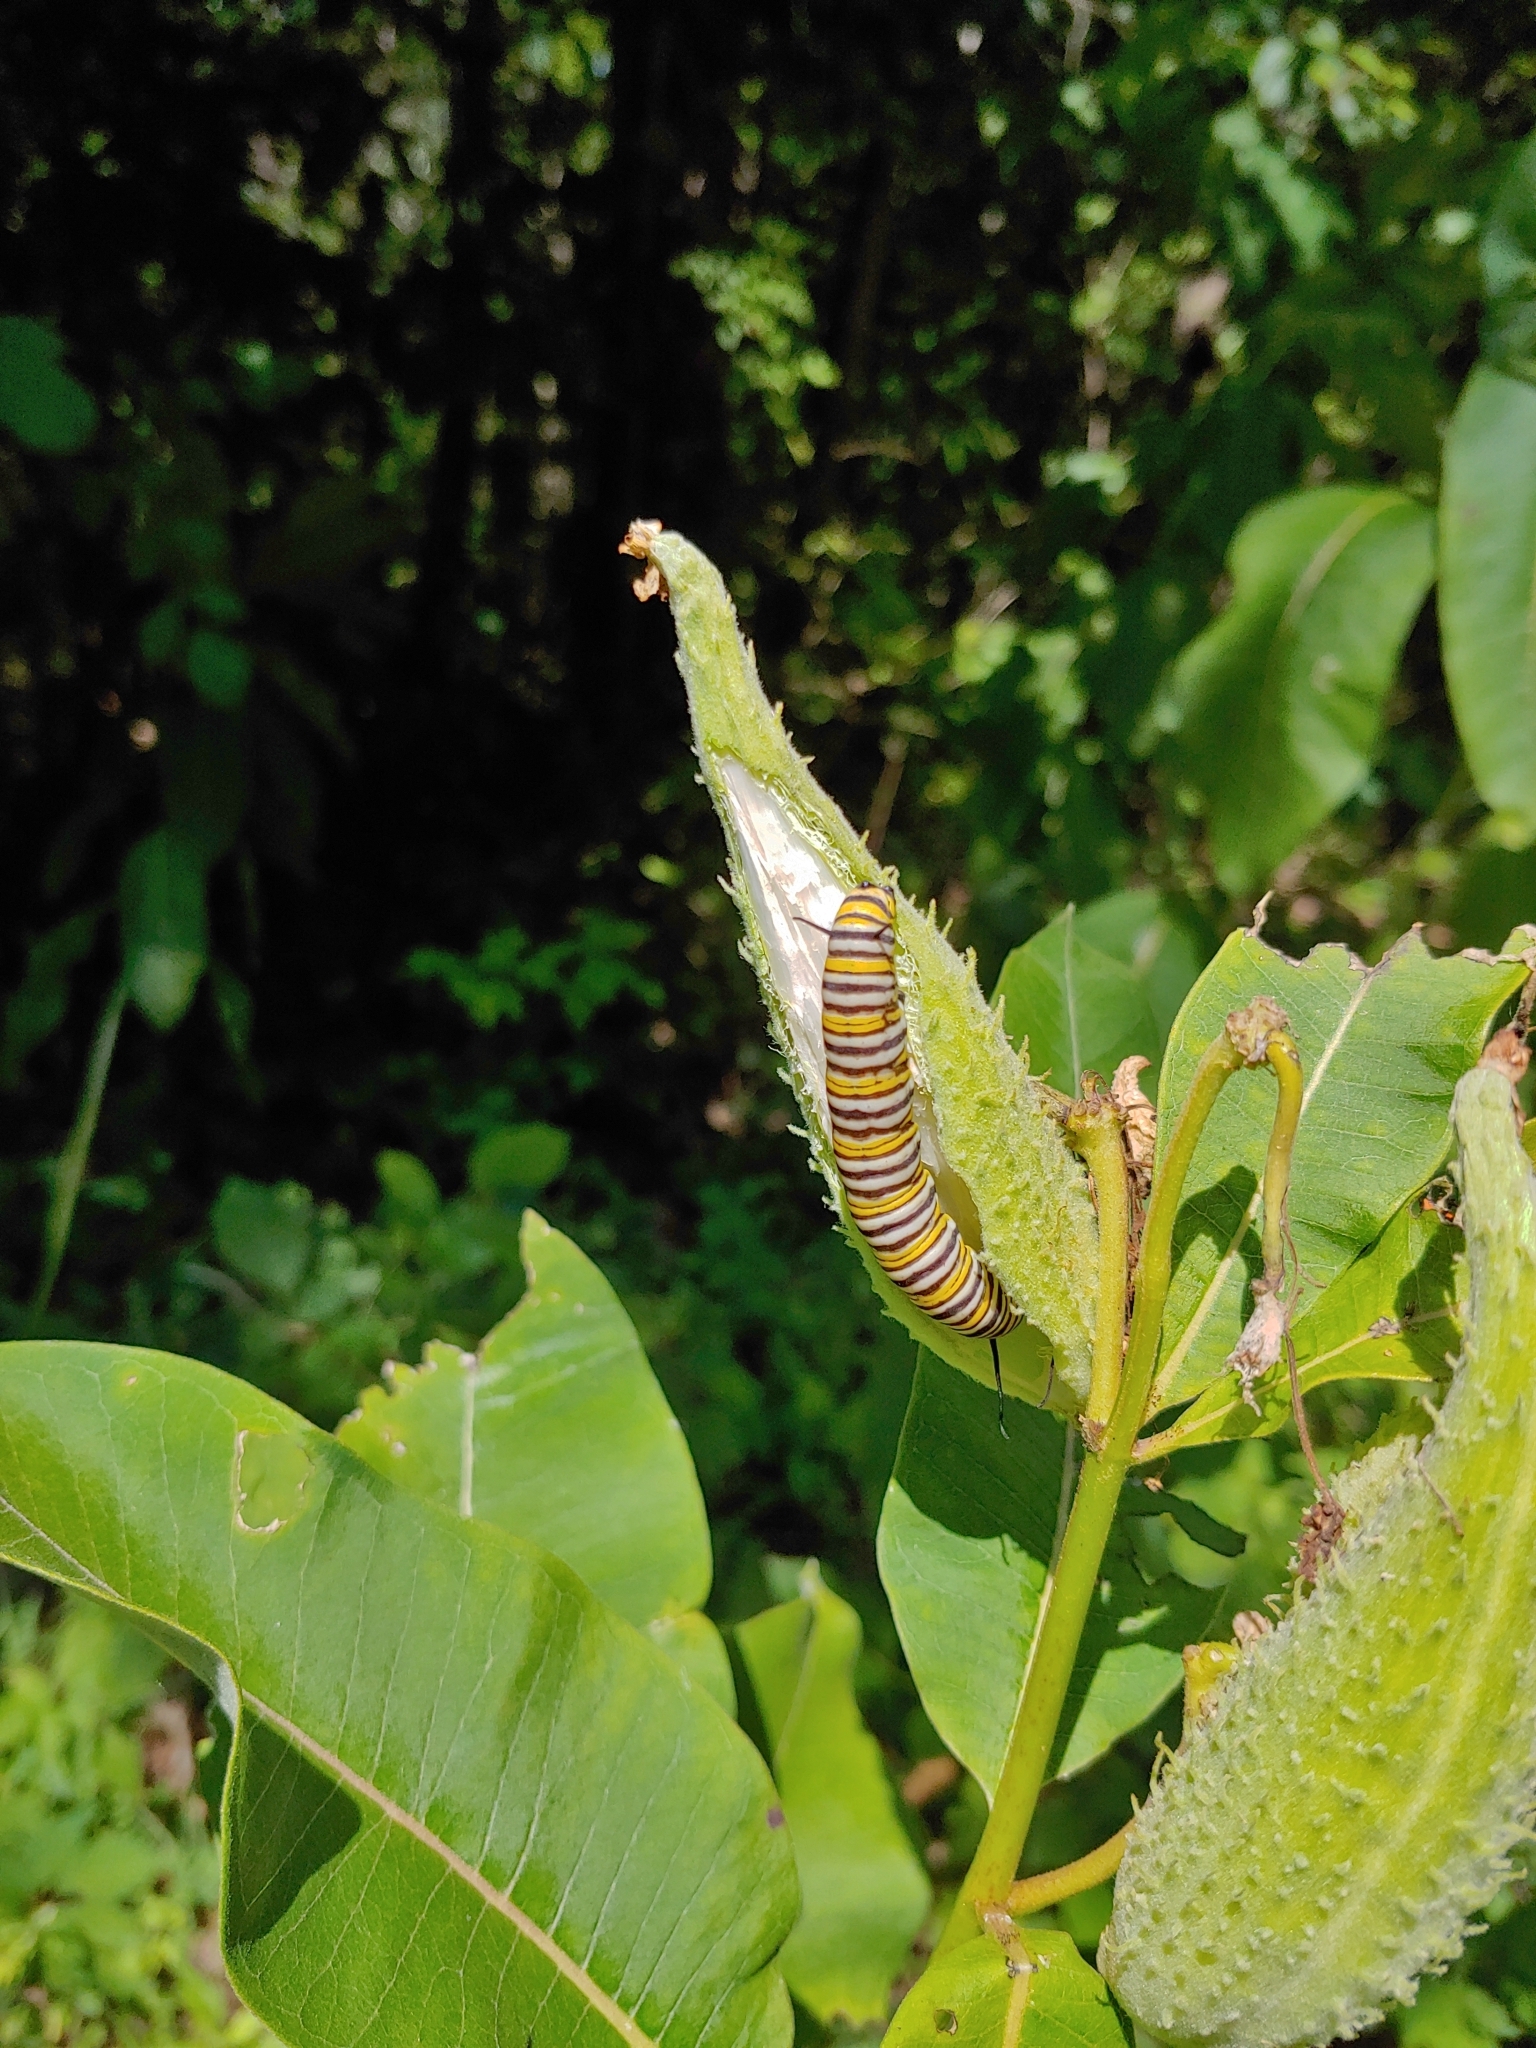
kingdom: Animalia
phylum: Arthropoda
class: Insecta
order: Lepidoptera
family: Nymphalidae
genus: Danaus
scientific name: Danaus plexippus
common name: Monarch
